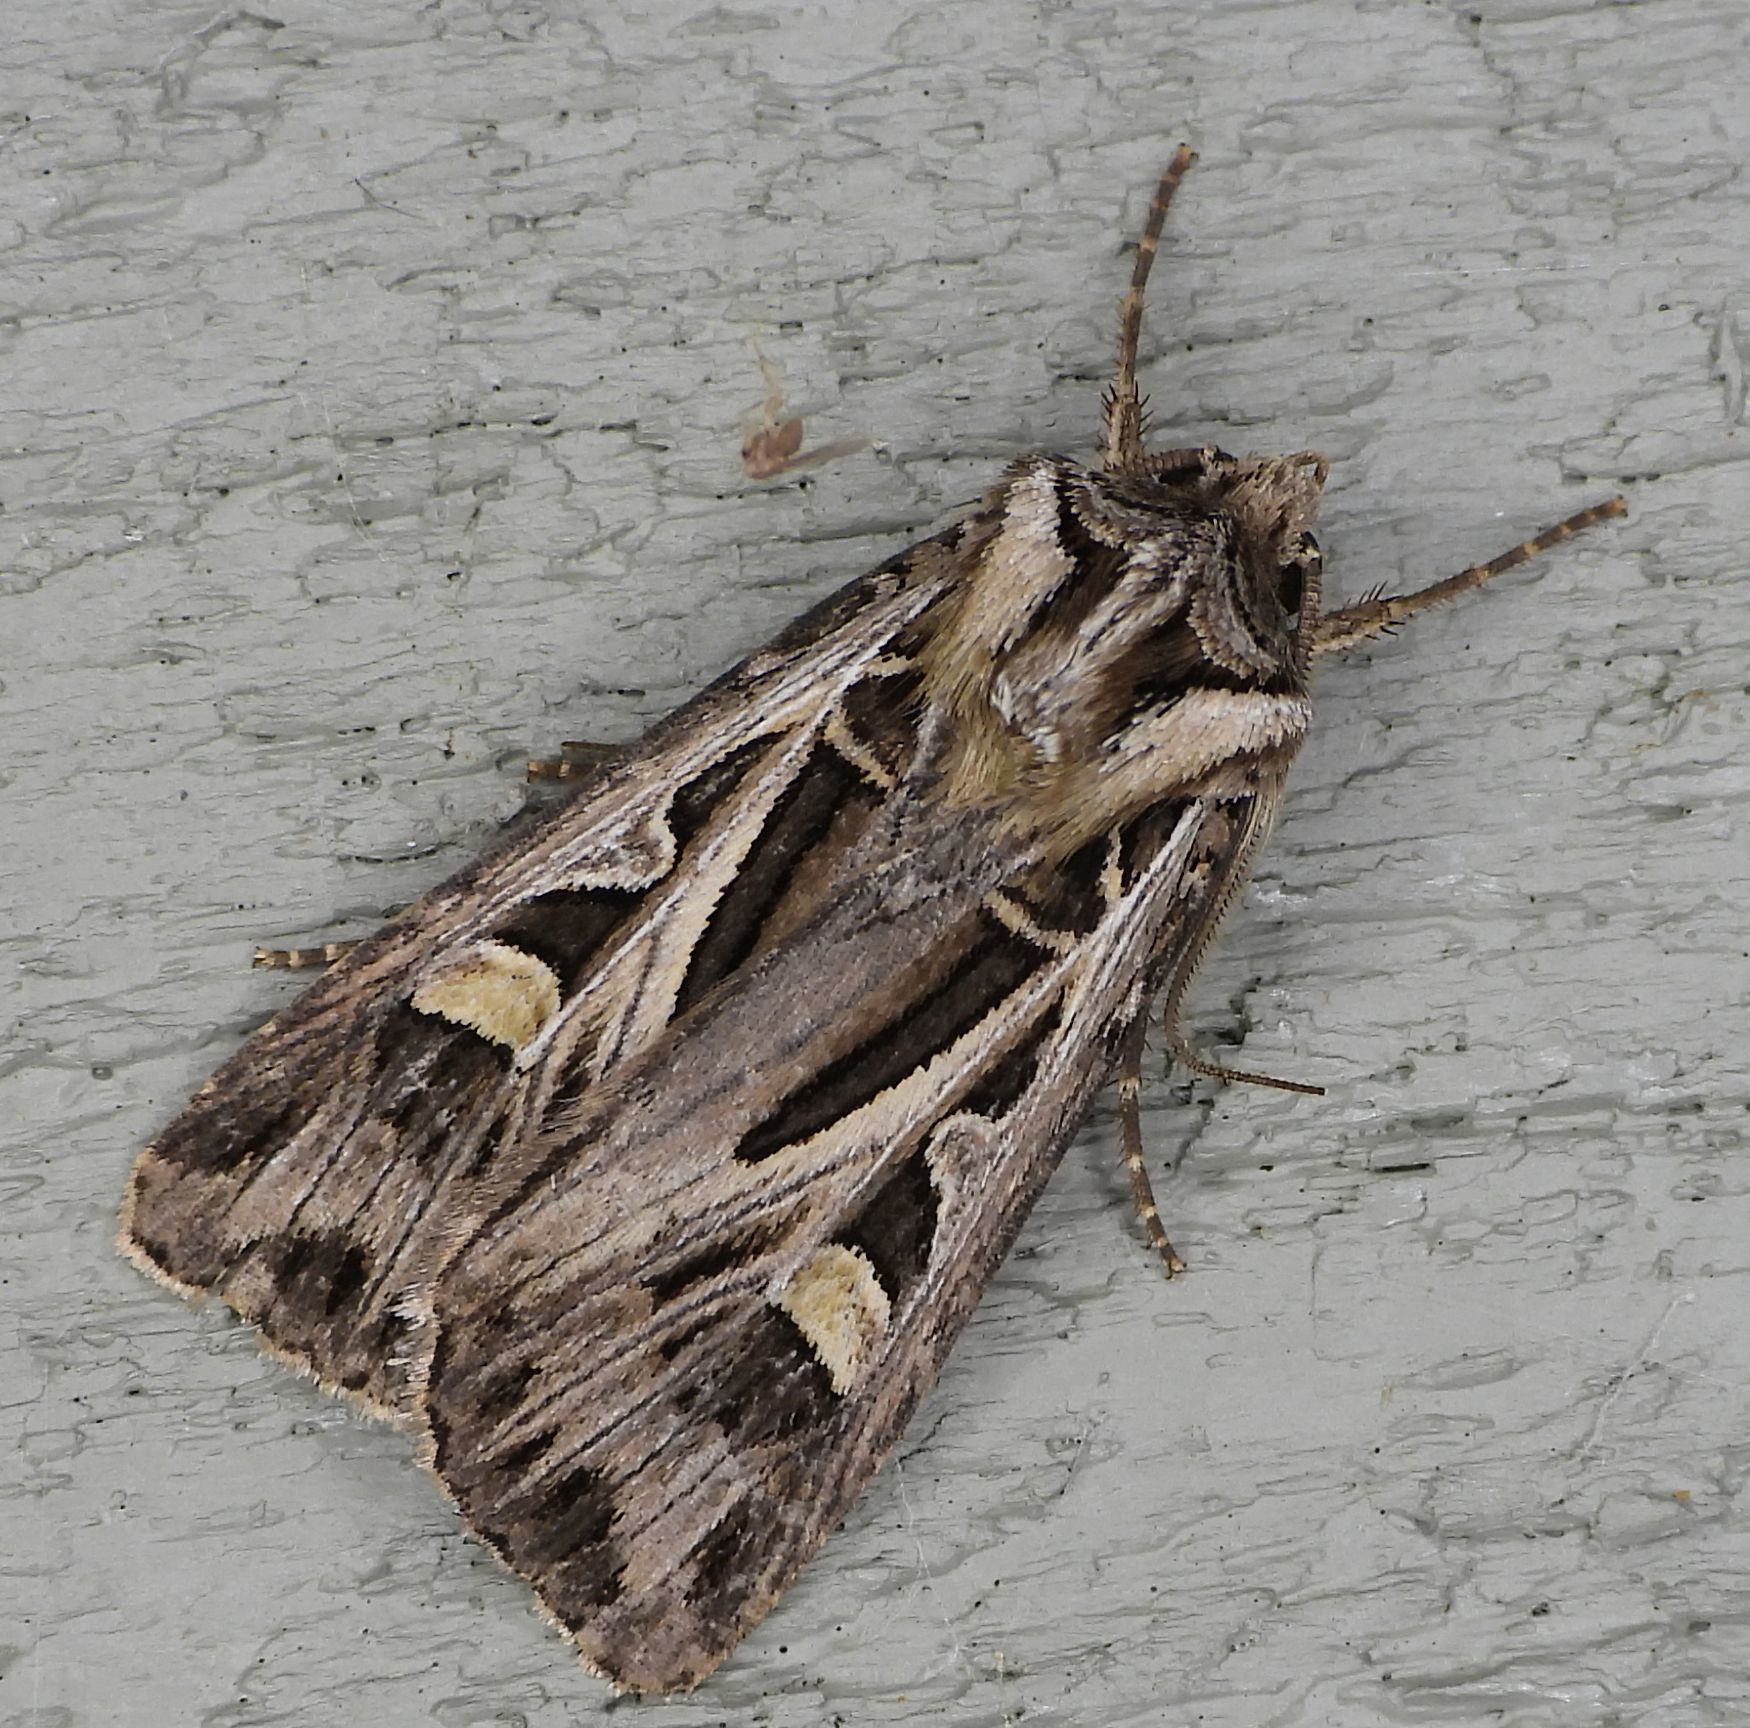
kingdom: Animalia
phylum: Arthropoda
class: Insecta
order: Lepidoptera
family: Noctuidae
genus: Feltia
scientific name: Feltia jaculifera
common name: Dingy cutworm moth
